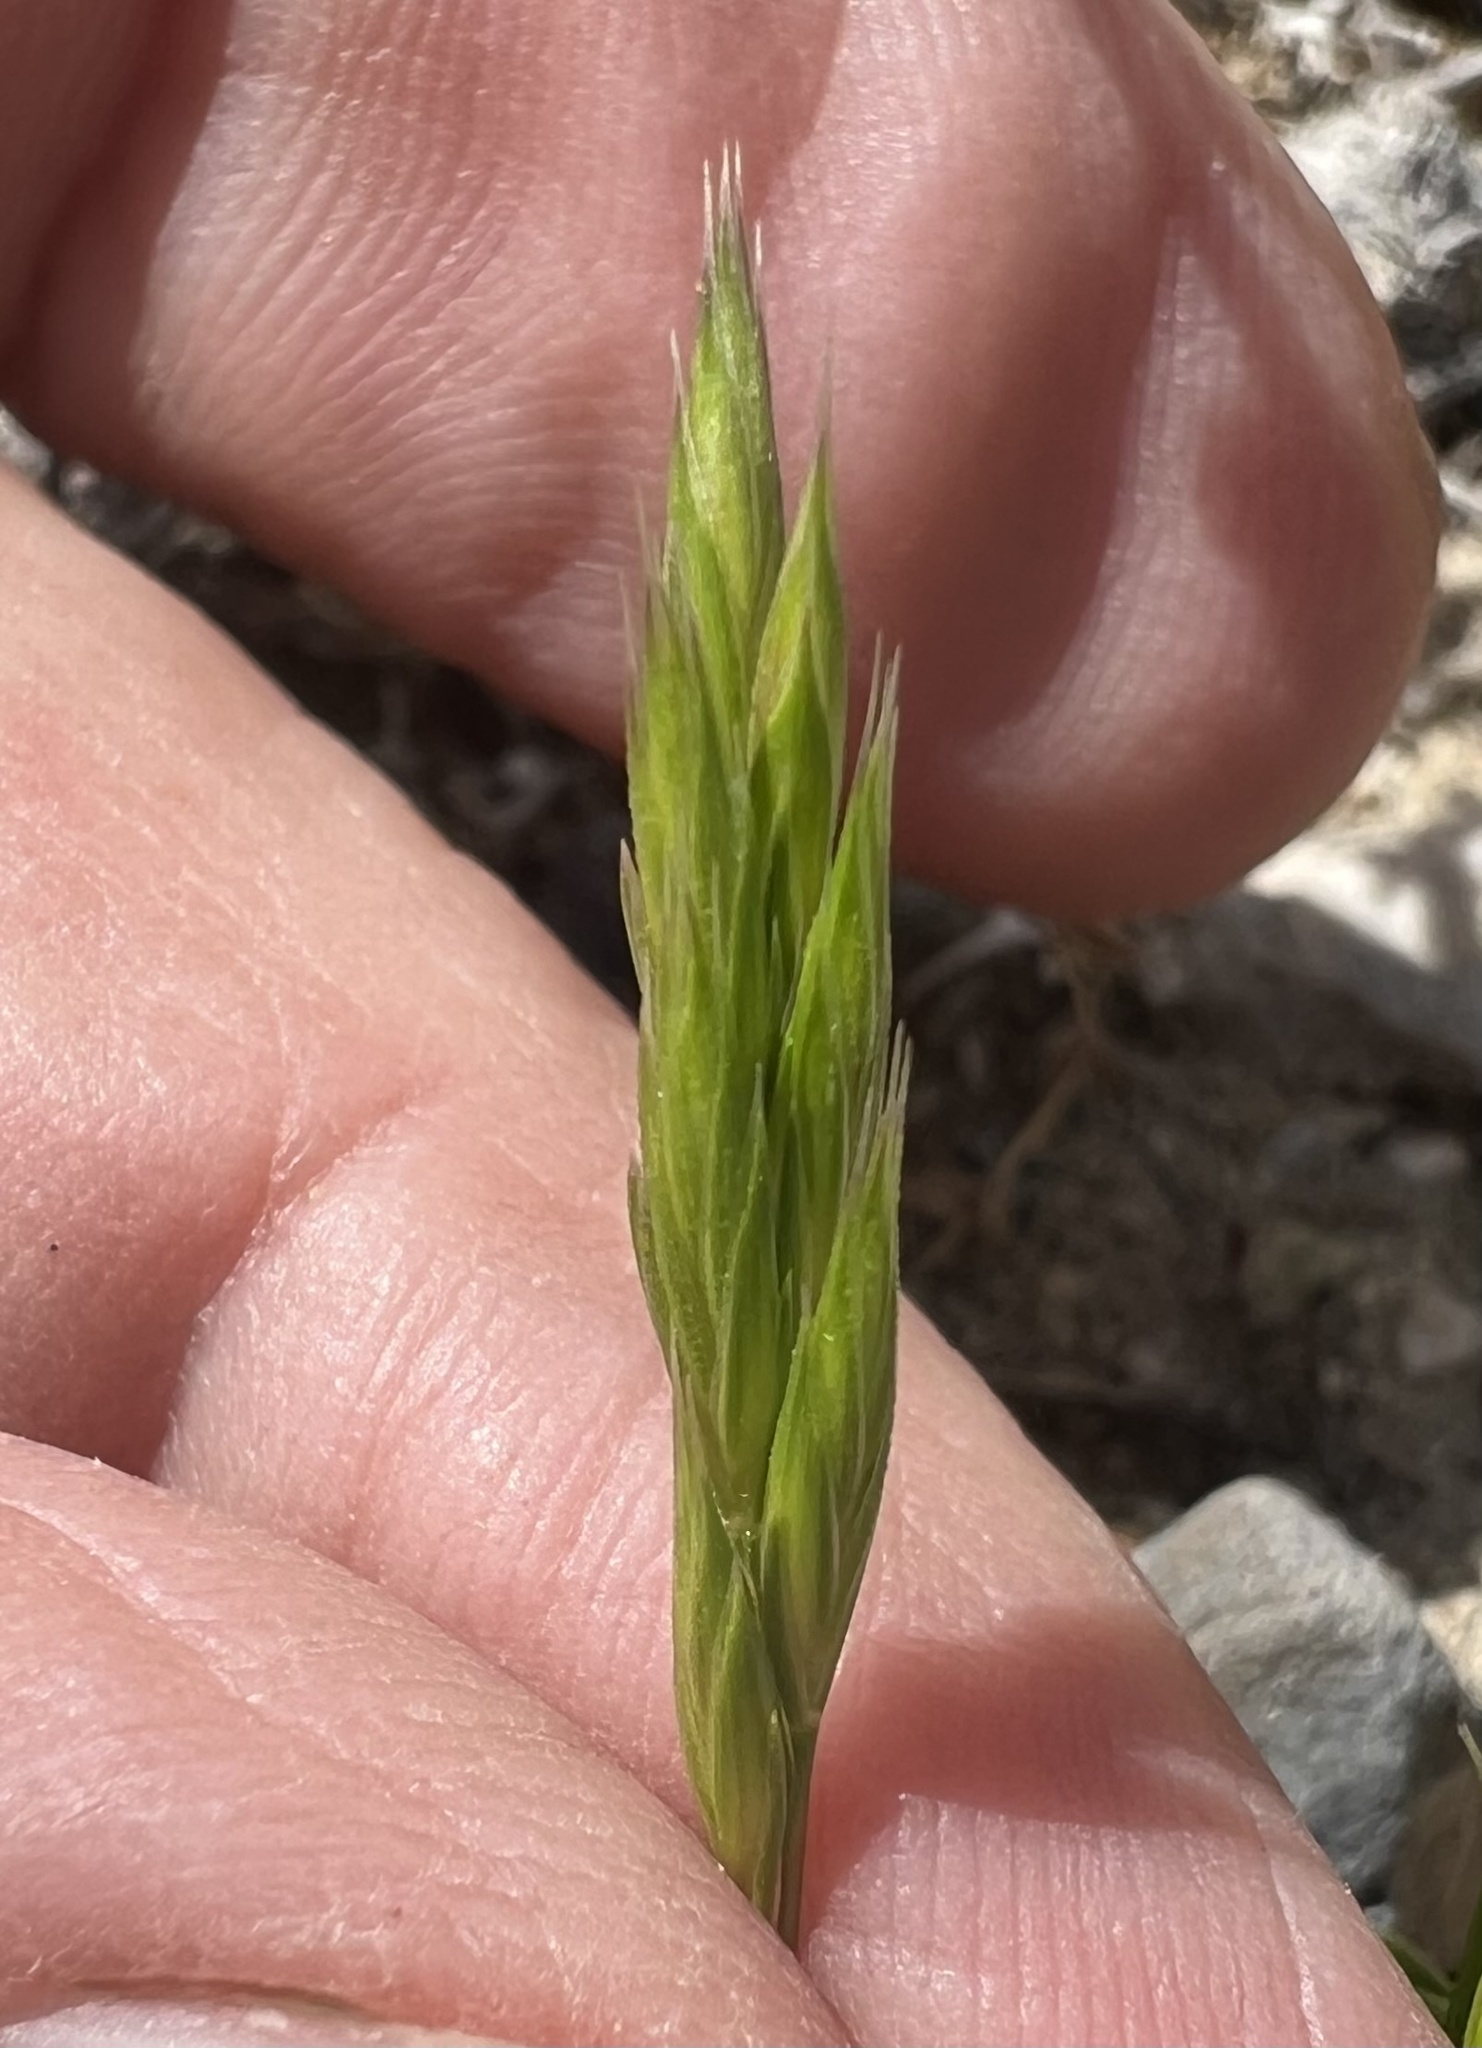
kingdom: Plantae
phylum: Tracheophyta
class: Liliopsida
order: Poales
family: Poaceae
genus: Festuca
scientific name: Festuca octoflora
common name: Sixweeks grass
